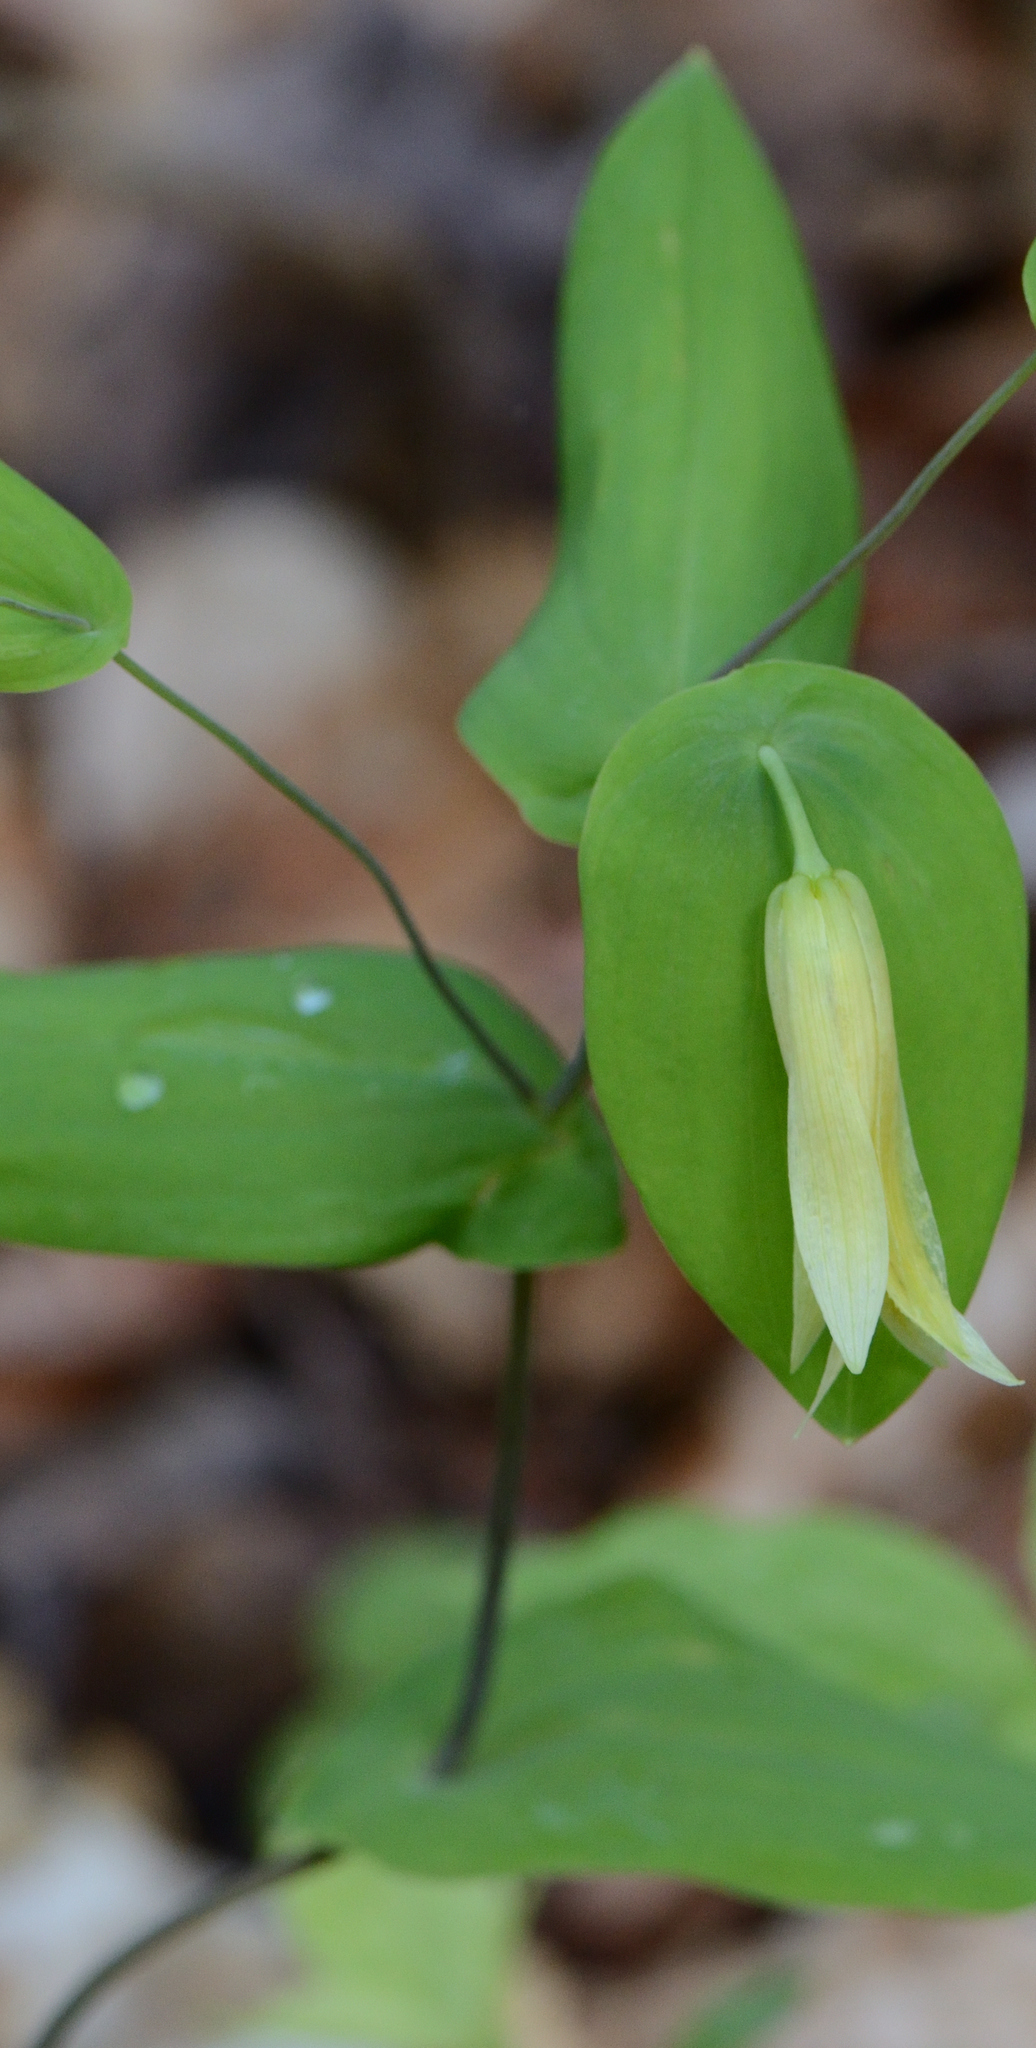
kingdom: Plantae
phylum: Tracheophyta
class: Liliopsida
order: Liliales
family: Colchicaceae
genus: Uvularia
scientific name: Uvularia perfoliata
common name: Perfoliate bellwort
